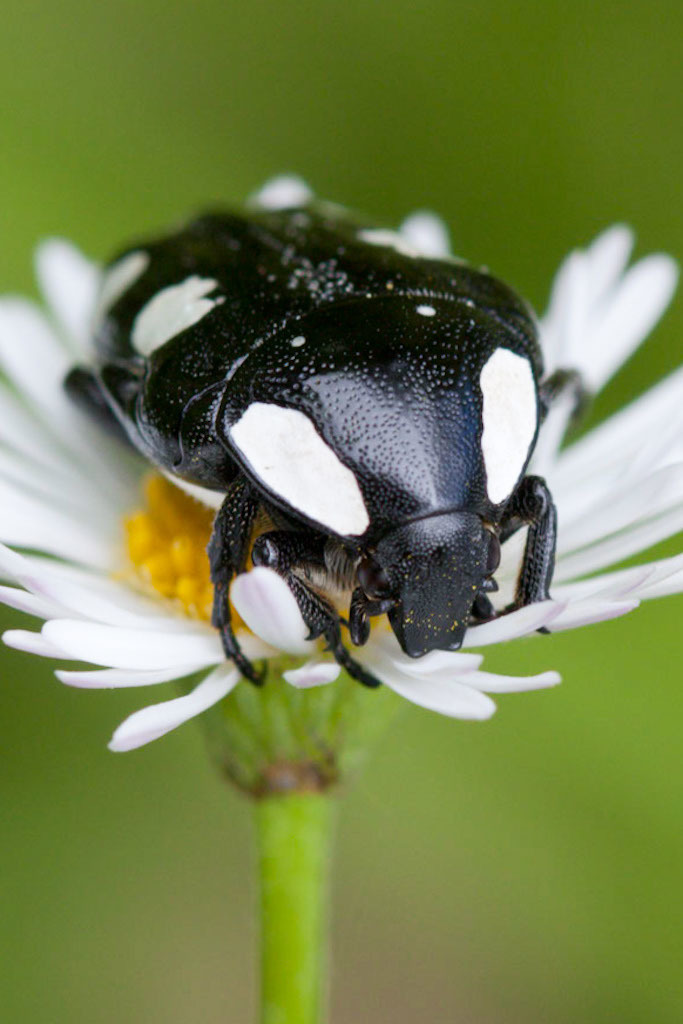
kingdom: Animalia
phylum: Arthropoda
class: Insecta
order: Coleoptera
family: Scarabaeidae
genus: Mausoleopsis
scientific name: Mausoleopsis amabilis
